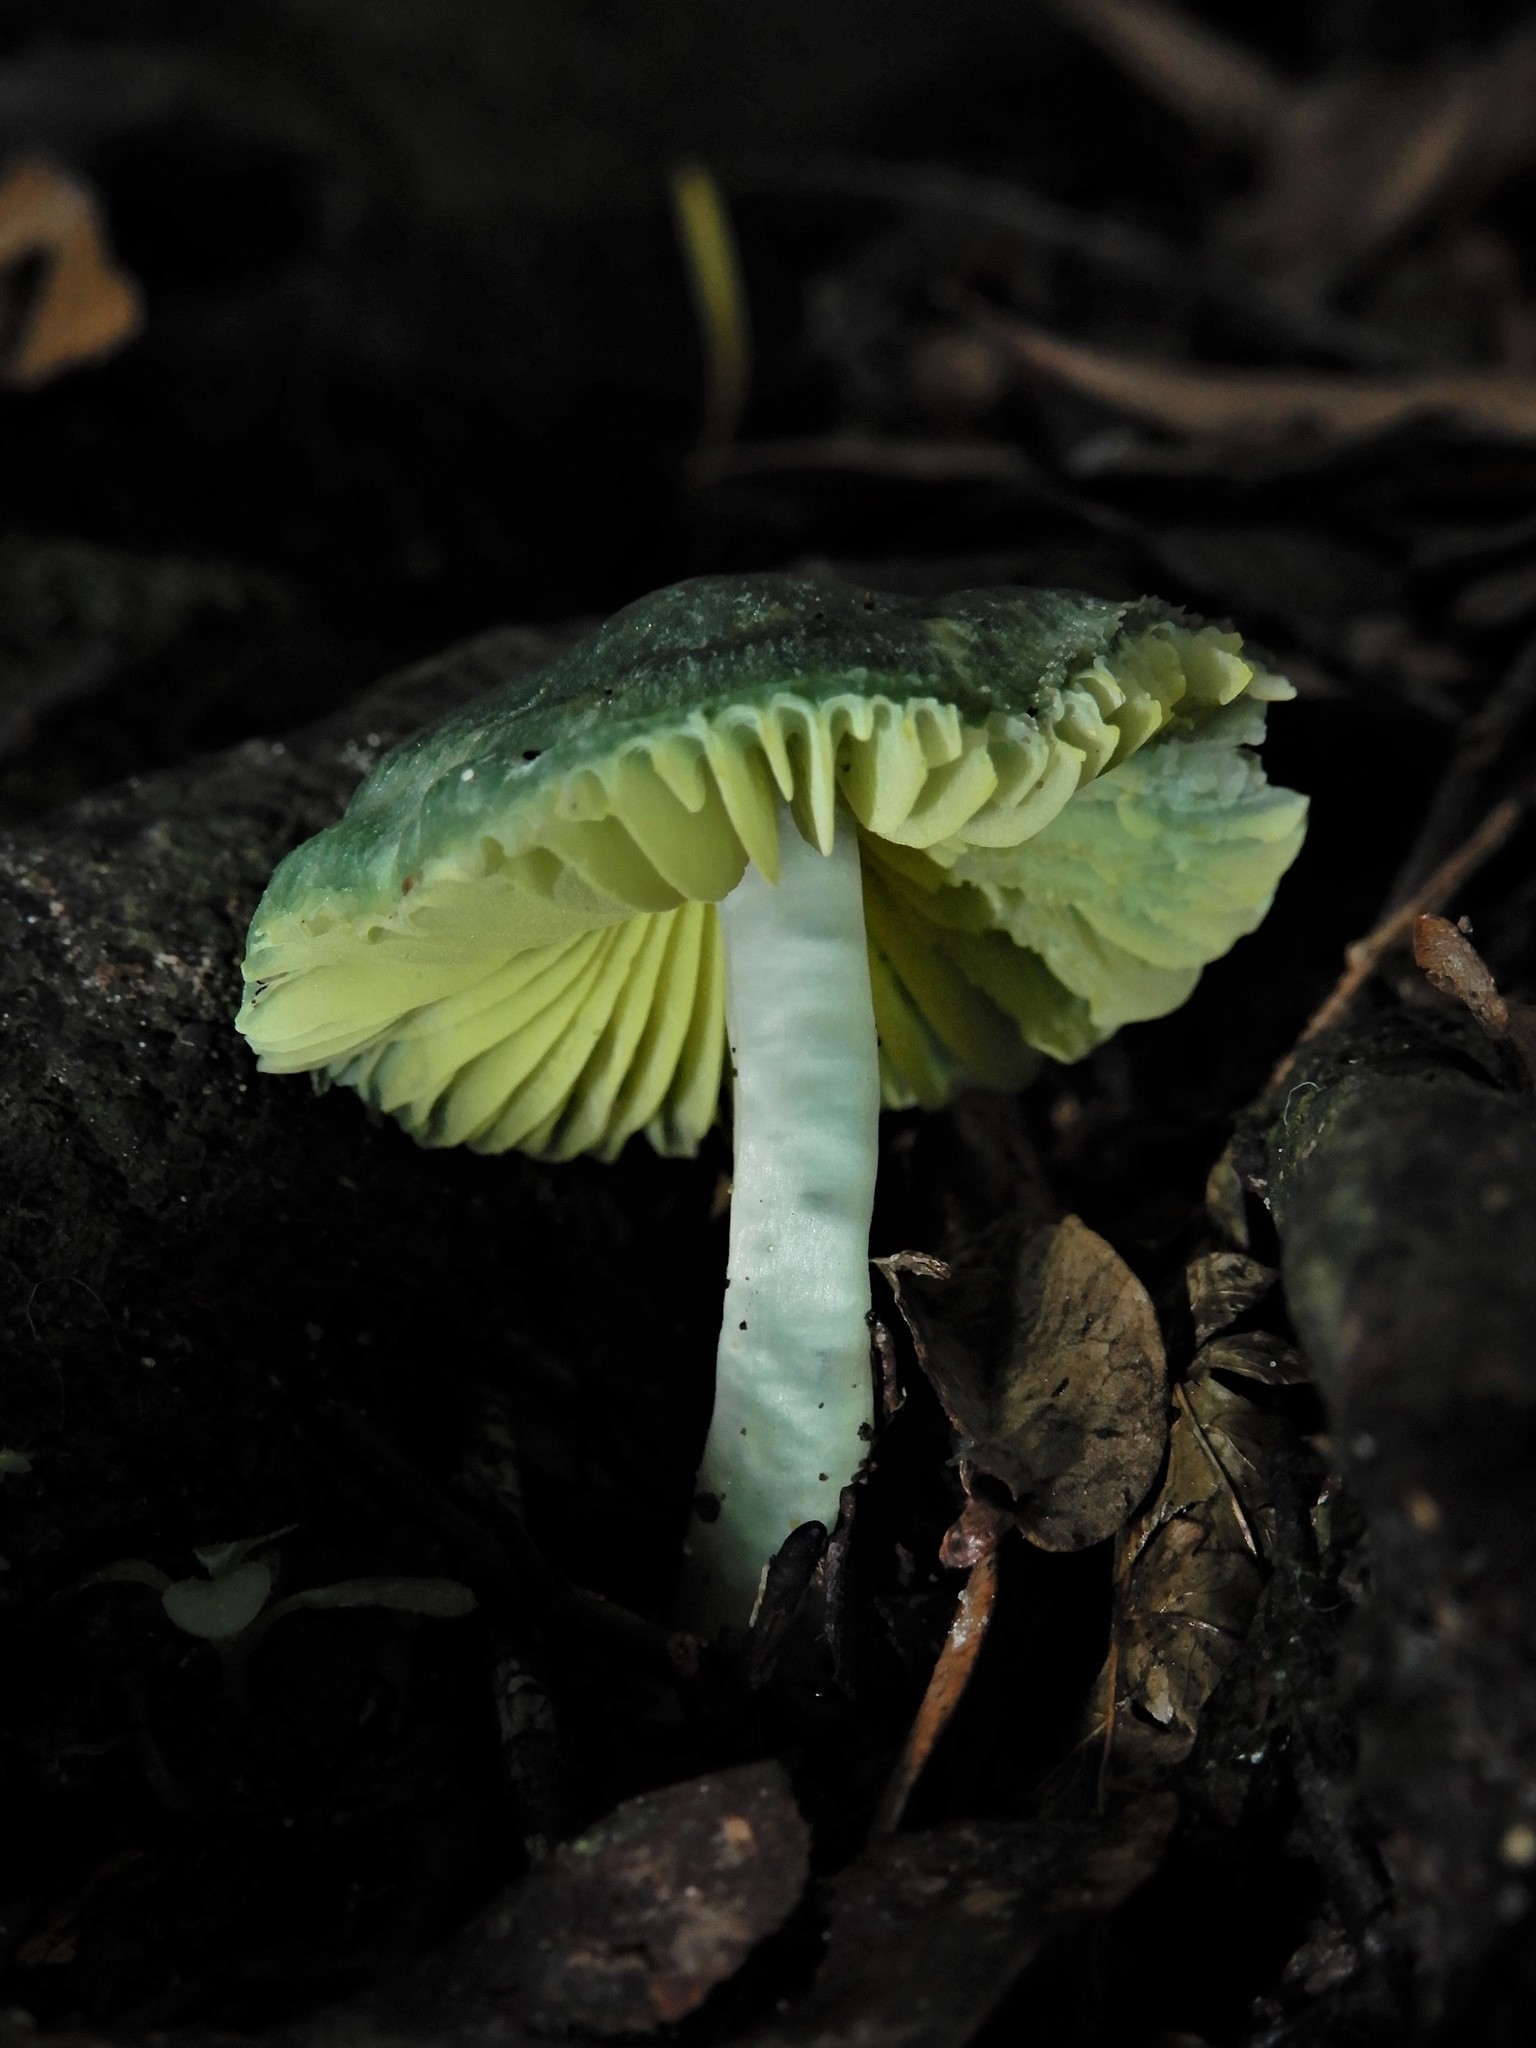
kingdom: Fungi
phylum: Basidiomycota
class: Agaricomycetes
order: Agaricales
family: Hygrophoraceae
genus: Humidicutis
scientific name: Humidicutis luteovirens
